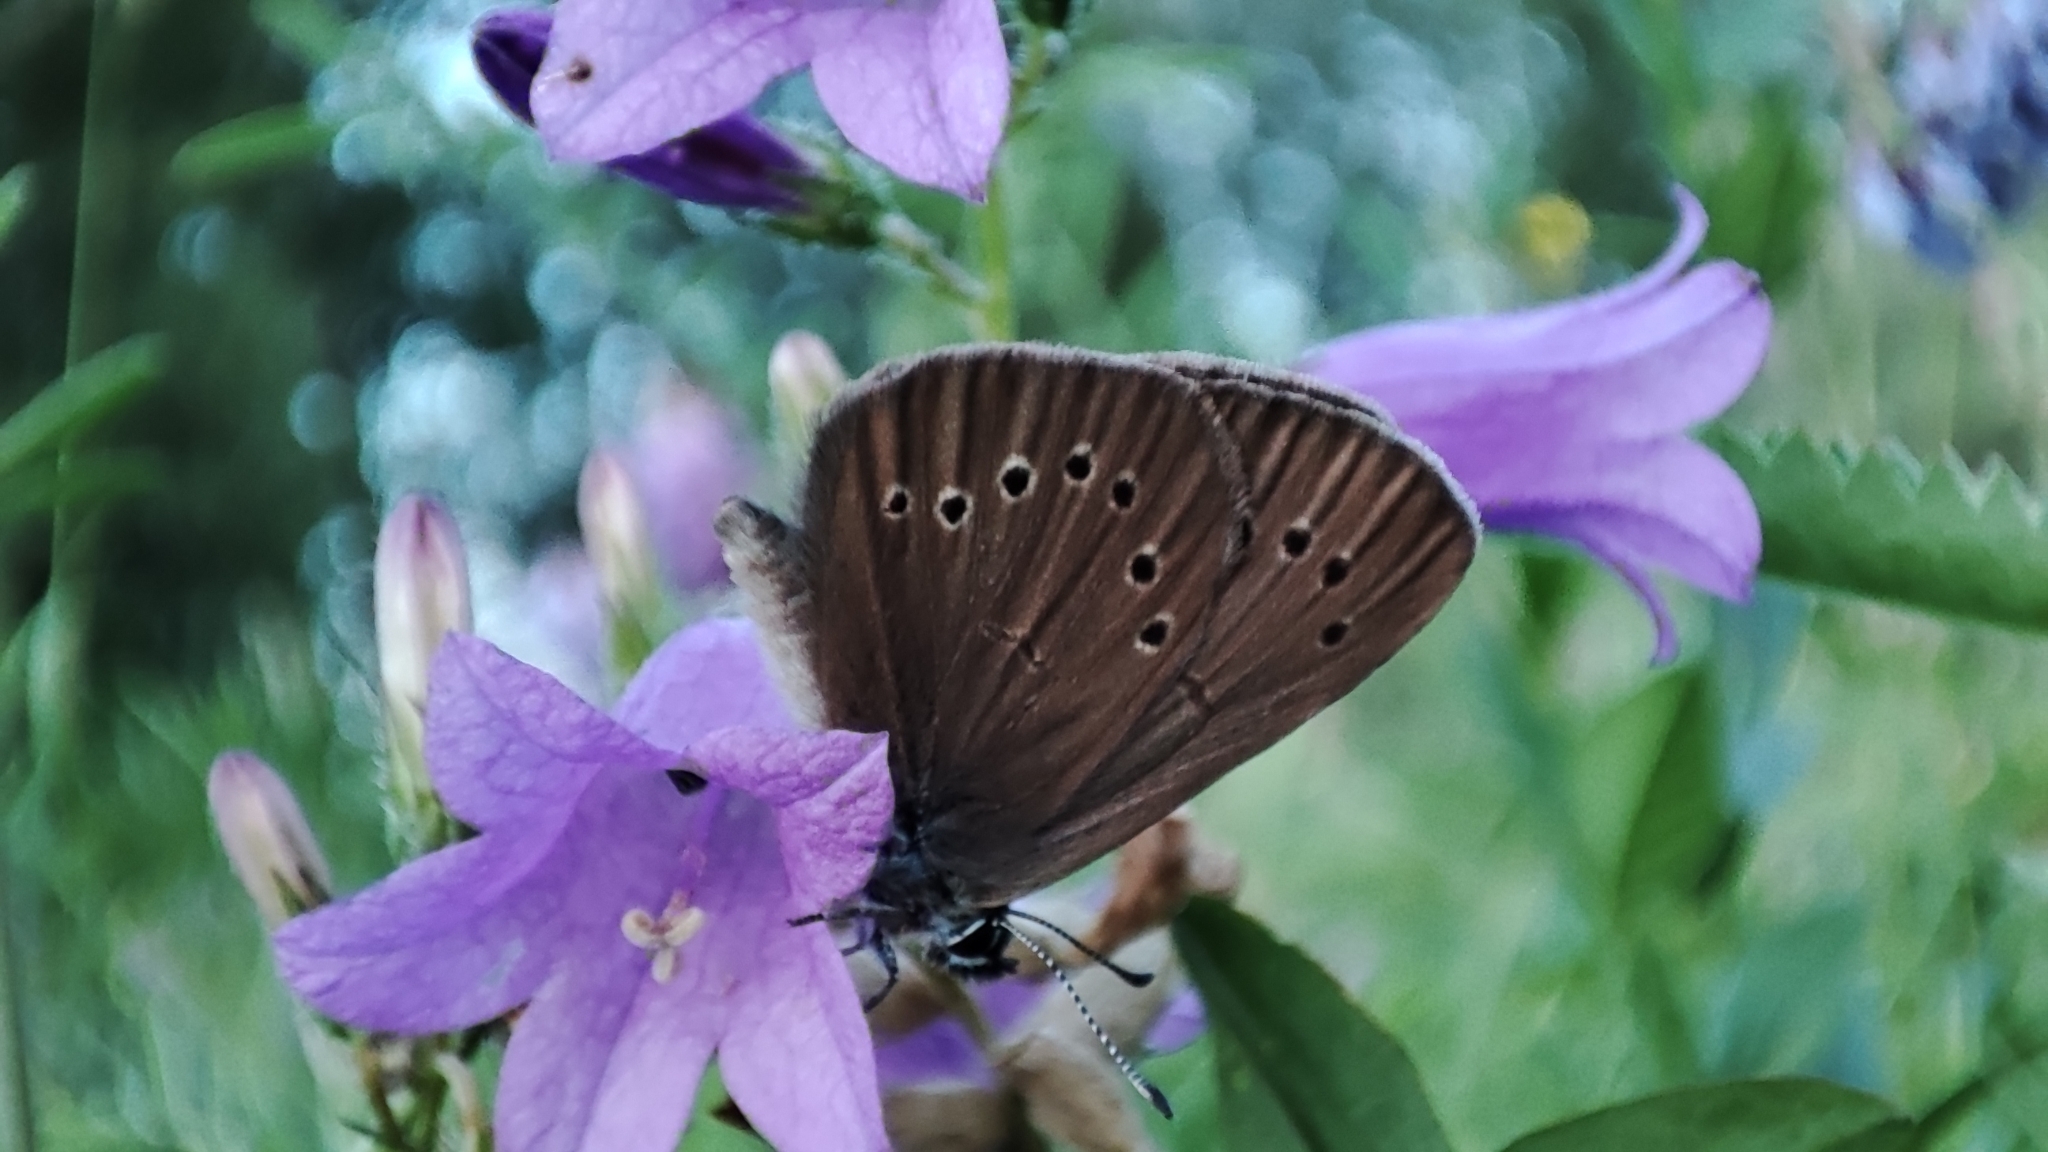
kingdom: Animalia
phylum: Arthropoda
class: Insecta
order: Lepidoptera
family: Lycaenidae
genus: Maculinea
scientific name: Maculinea nausithous
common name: Dusky large blue
